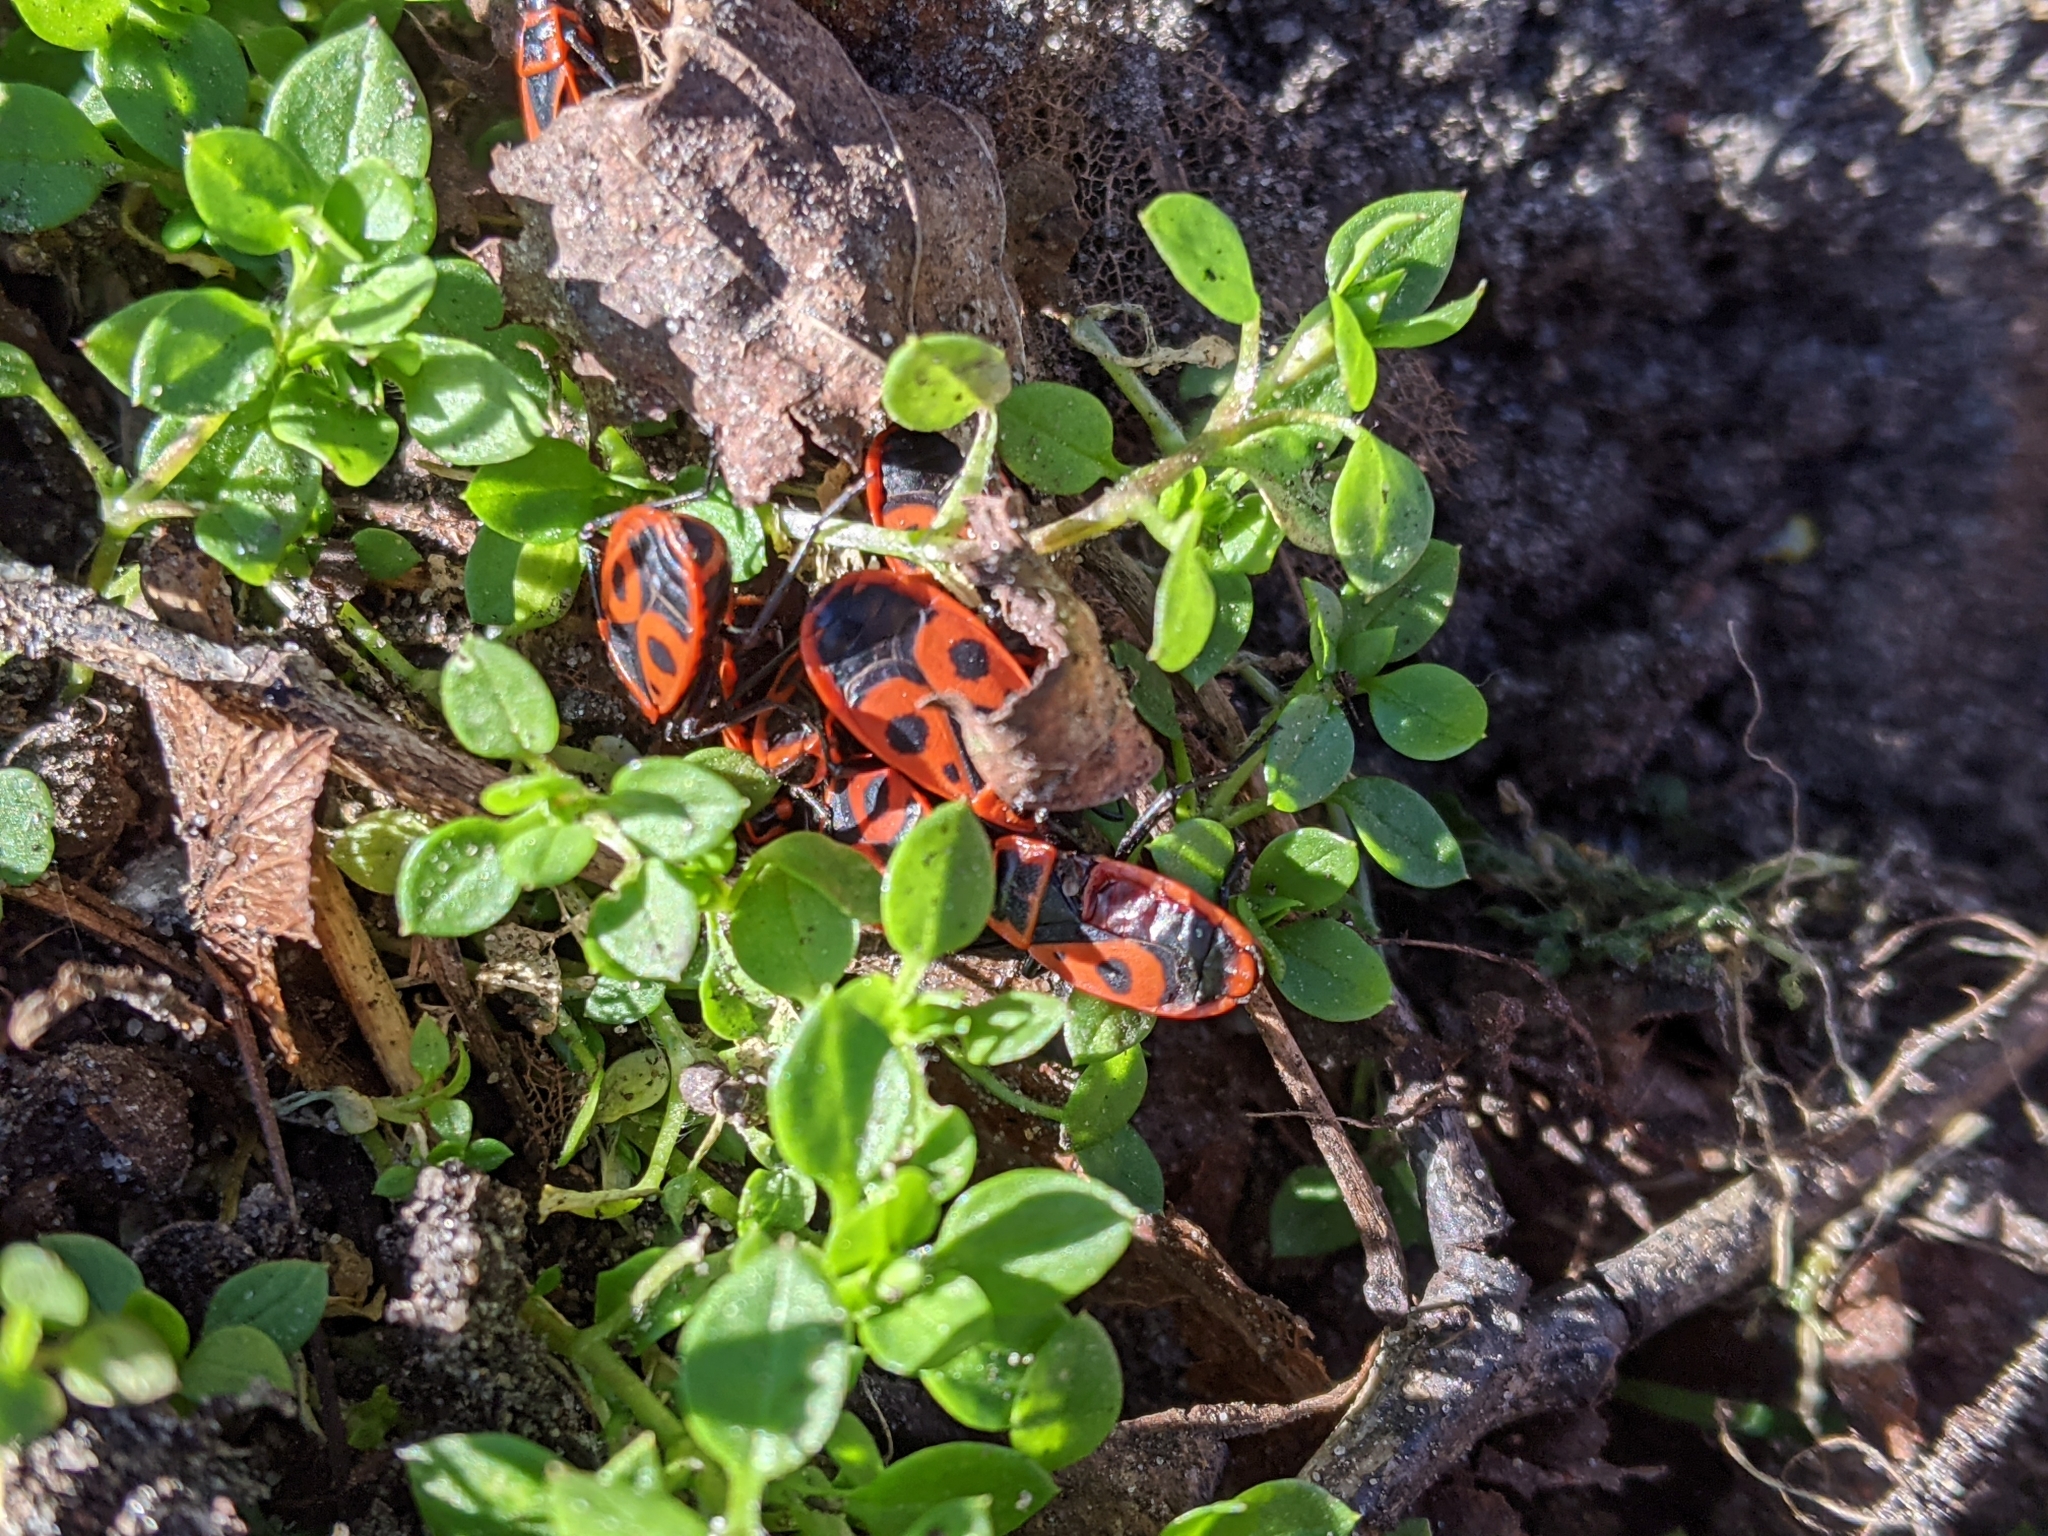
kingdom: Animalia
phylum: Arthropoda
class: Insecta
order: Hemiptera
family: Pyrrhocoridae
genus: Pyrrhocoris
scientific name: Pyrrhocoris apterus
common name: Firebug
